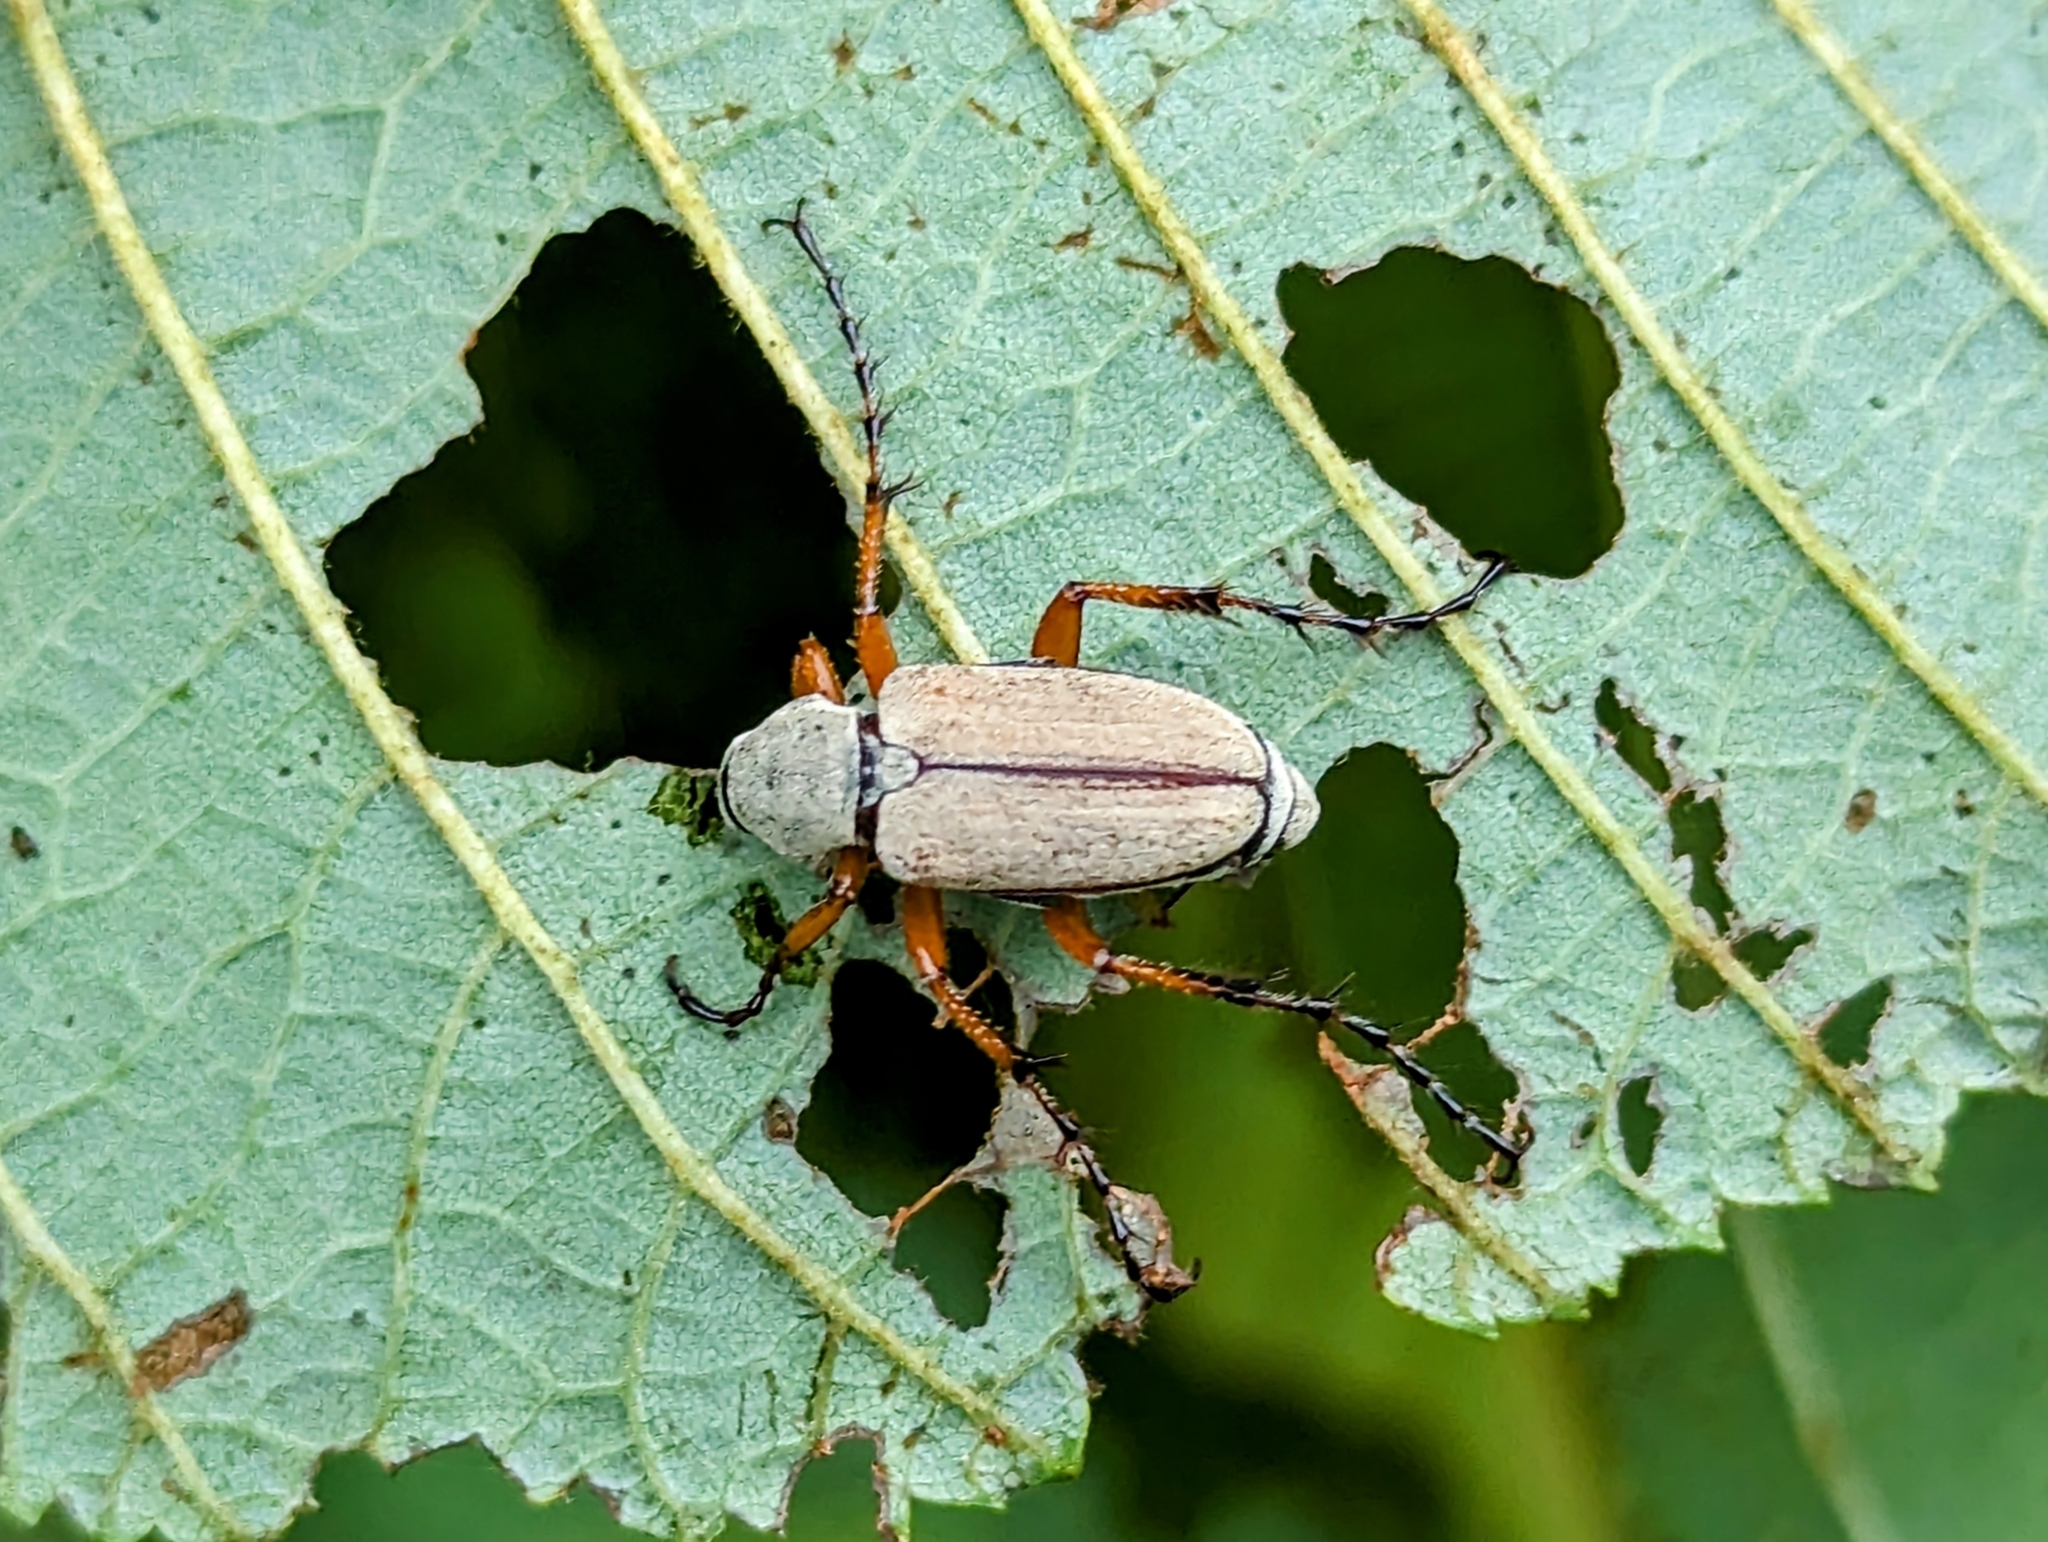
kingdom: Animalia
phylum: Arthropoda
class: Insecta
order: Coleoptera
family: Scarabaeidae
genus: Macrodactylus
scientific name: Macrodactylus subspinosus
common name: American rose chafer
